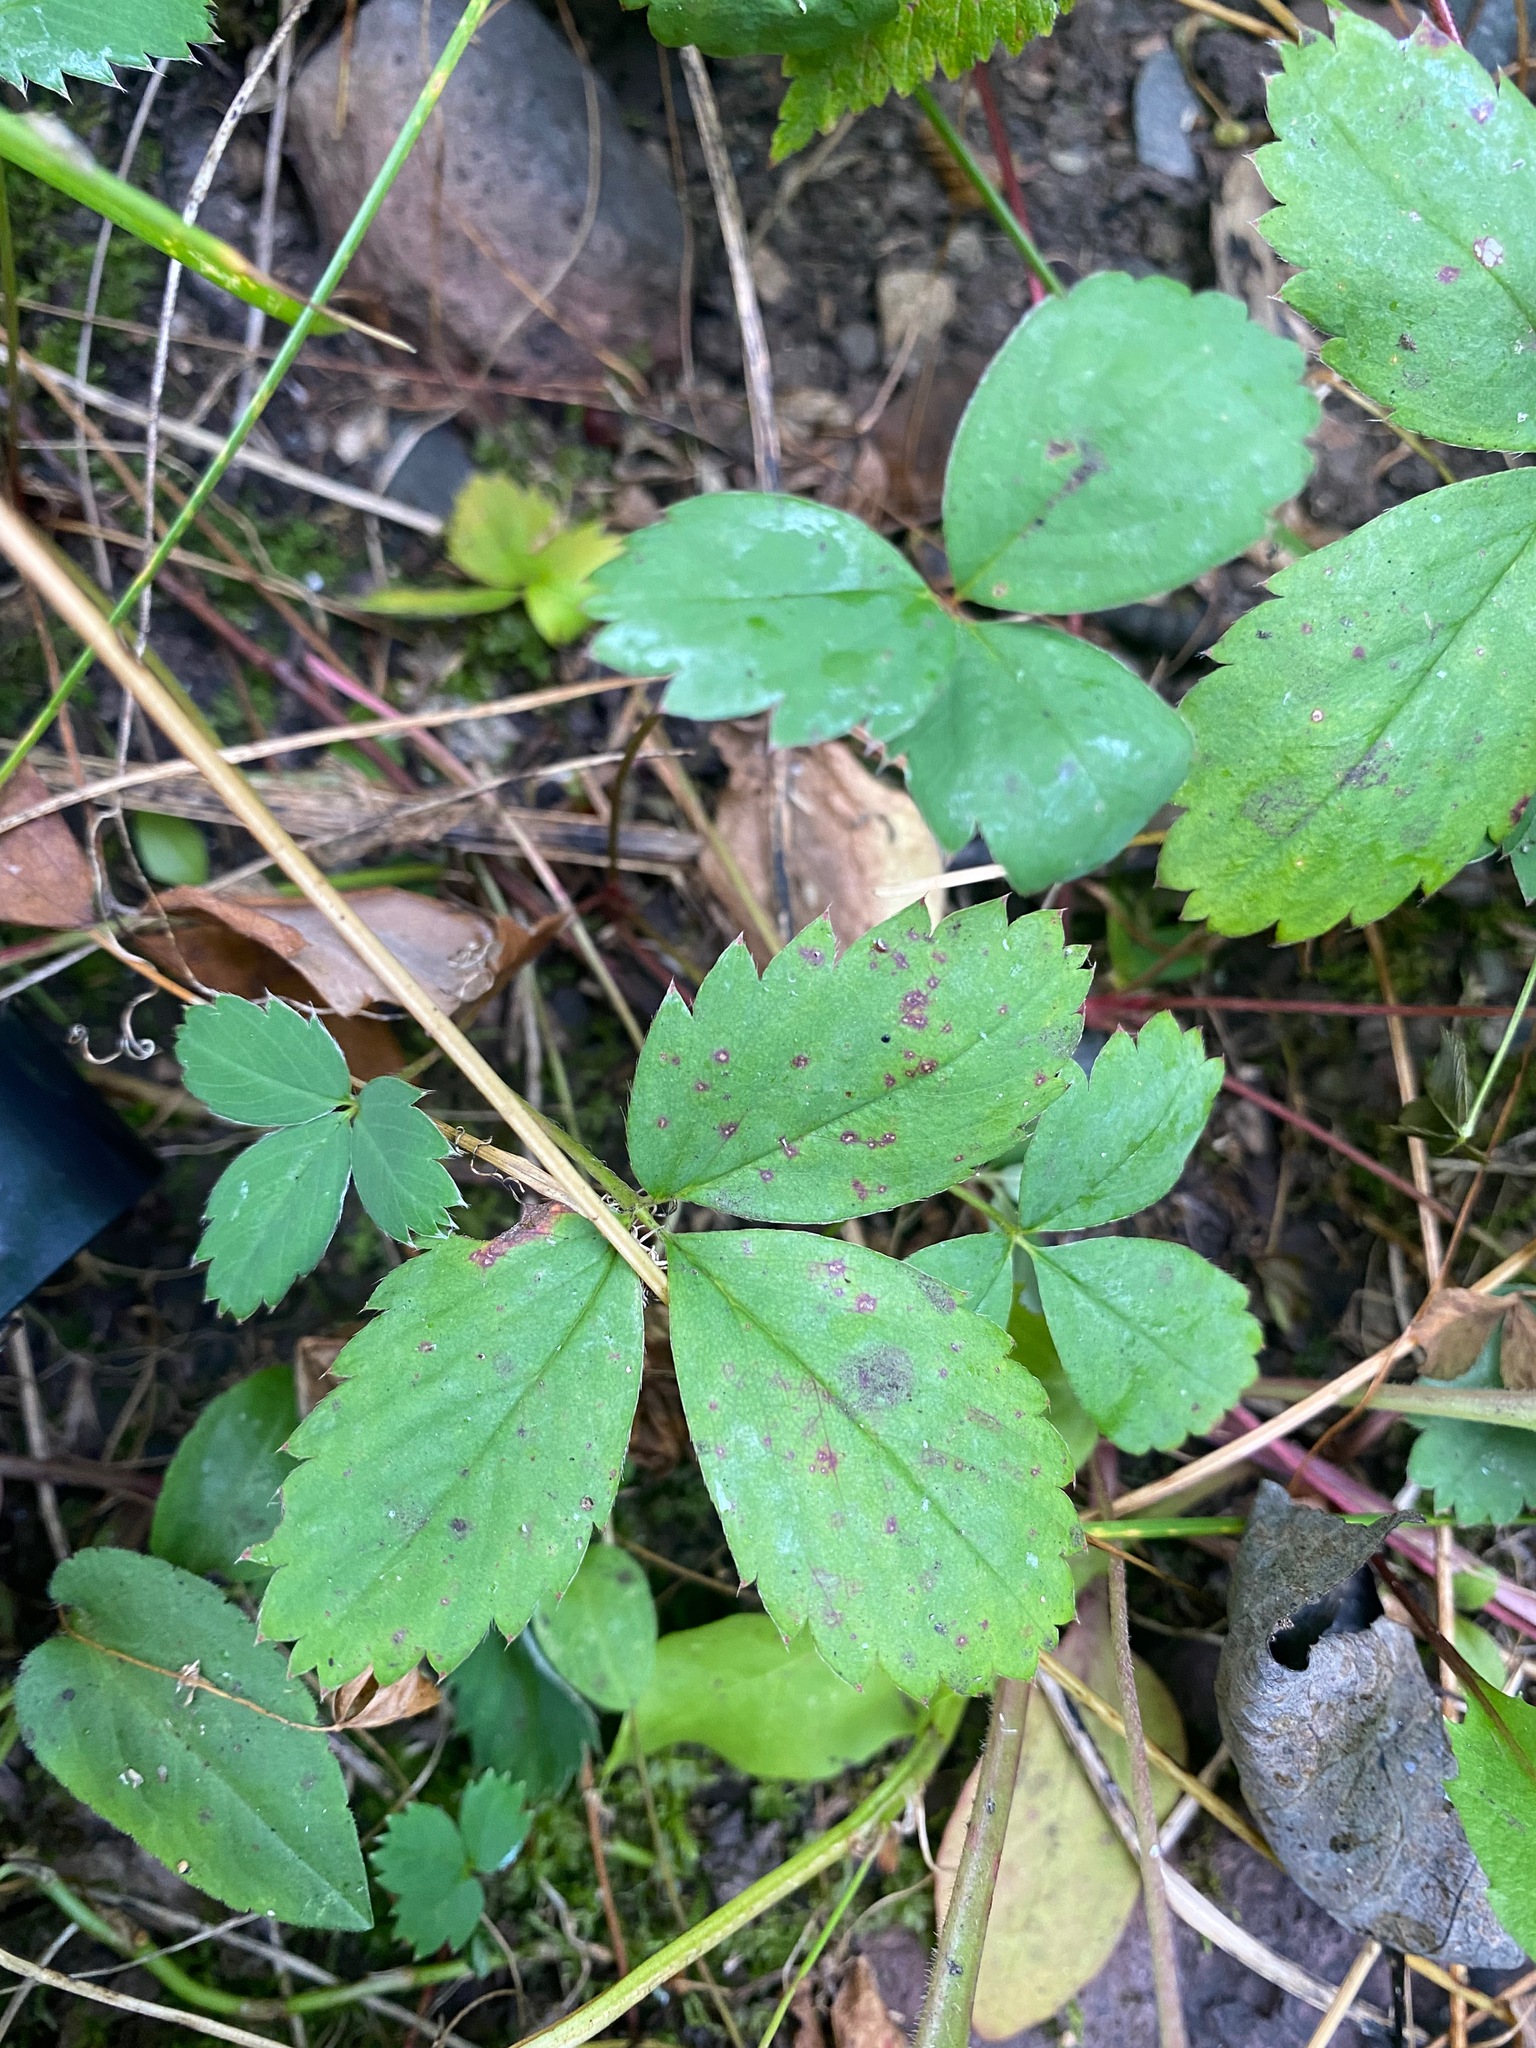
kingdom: Plantae
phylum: Tracheophyta
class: Magnoliopsida
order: Rosales
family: Rosaceae
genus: Fragaria
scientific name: Fragaria virginiana
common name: Thickleaved wild strawberry
